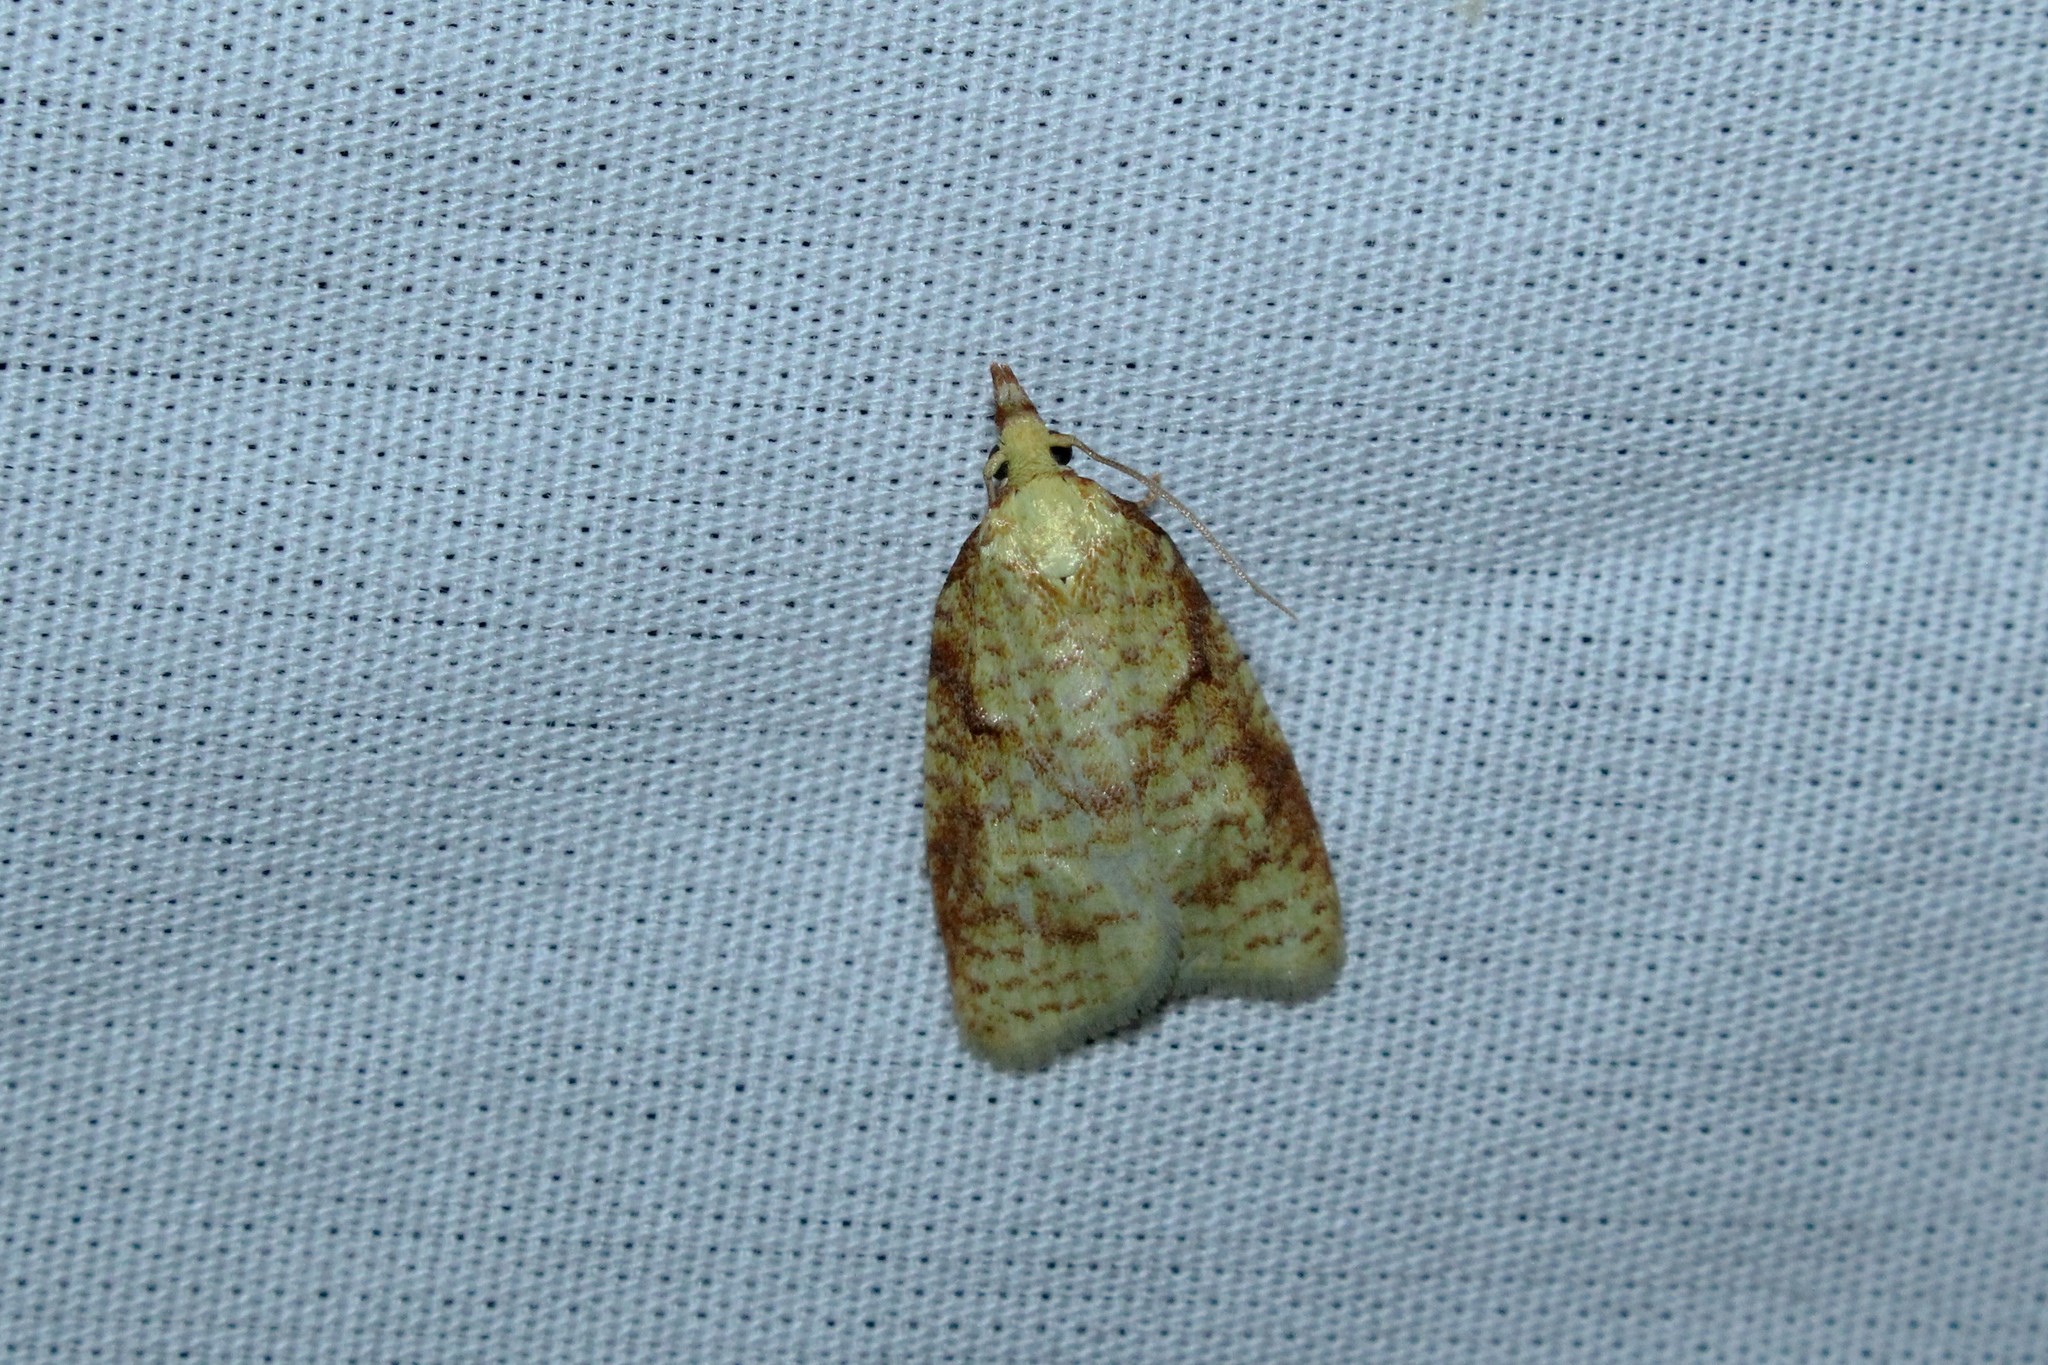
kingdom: Animalia
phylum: Arthropoda
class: Insecta
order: Lepidoptera
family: Tortricidae
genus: Cenopis
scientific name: Cenopis pettitana
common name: Maple-basswood leafroller moth
